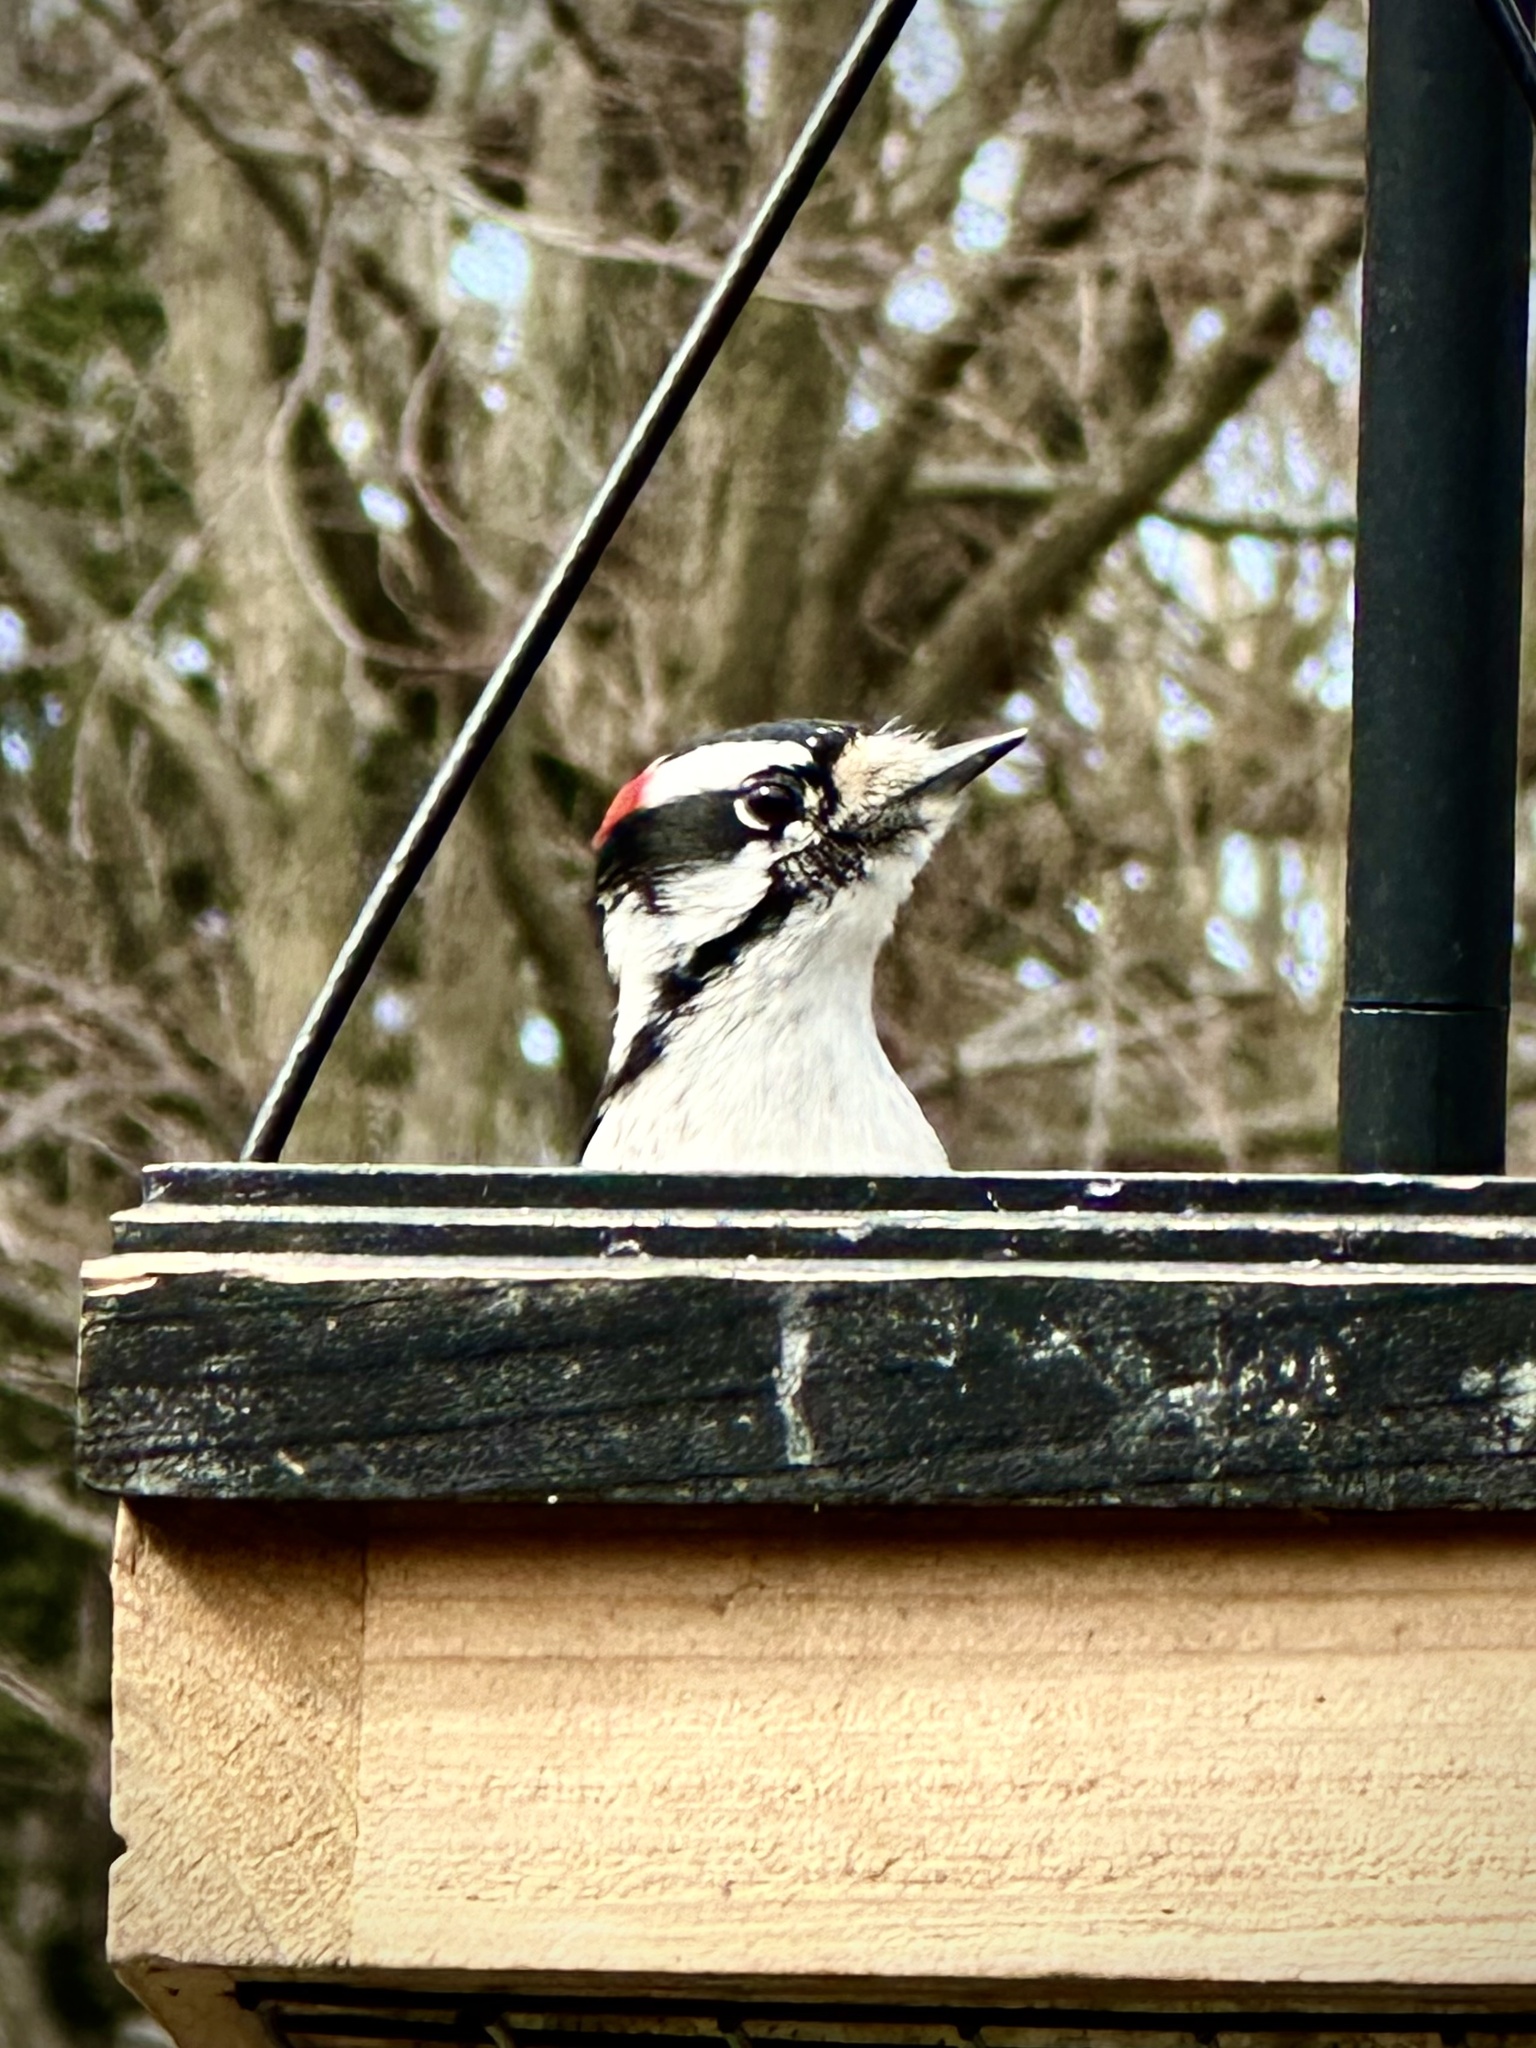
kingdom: Animalia
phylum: Chordata
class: Aves
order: Piciformes
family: Picidae
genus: Dryobates
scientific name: Dryobates pubescens
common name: Downy woodpecker
